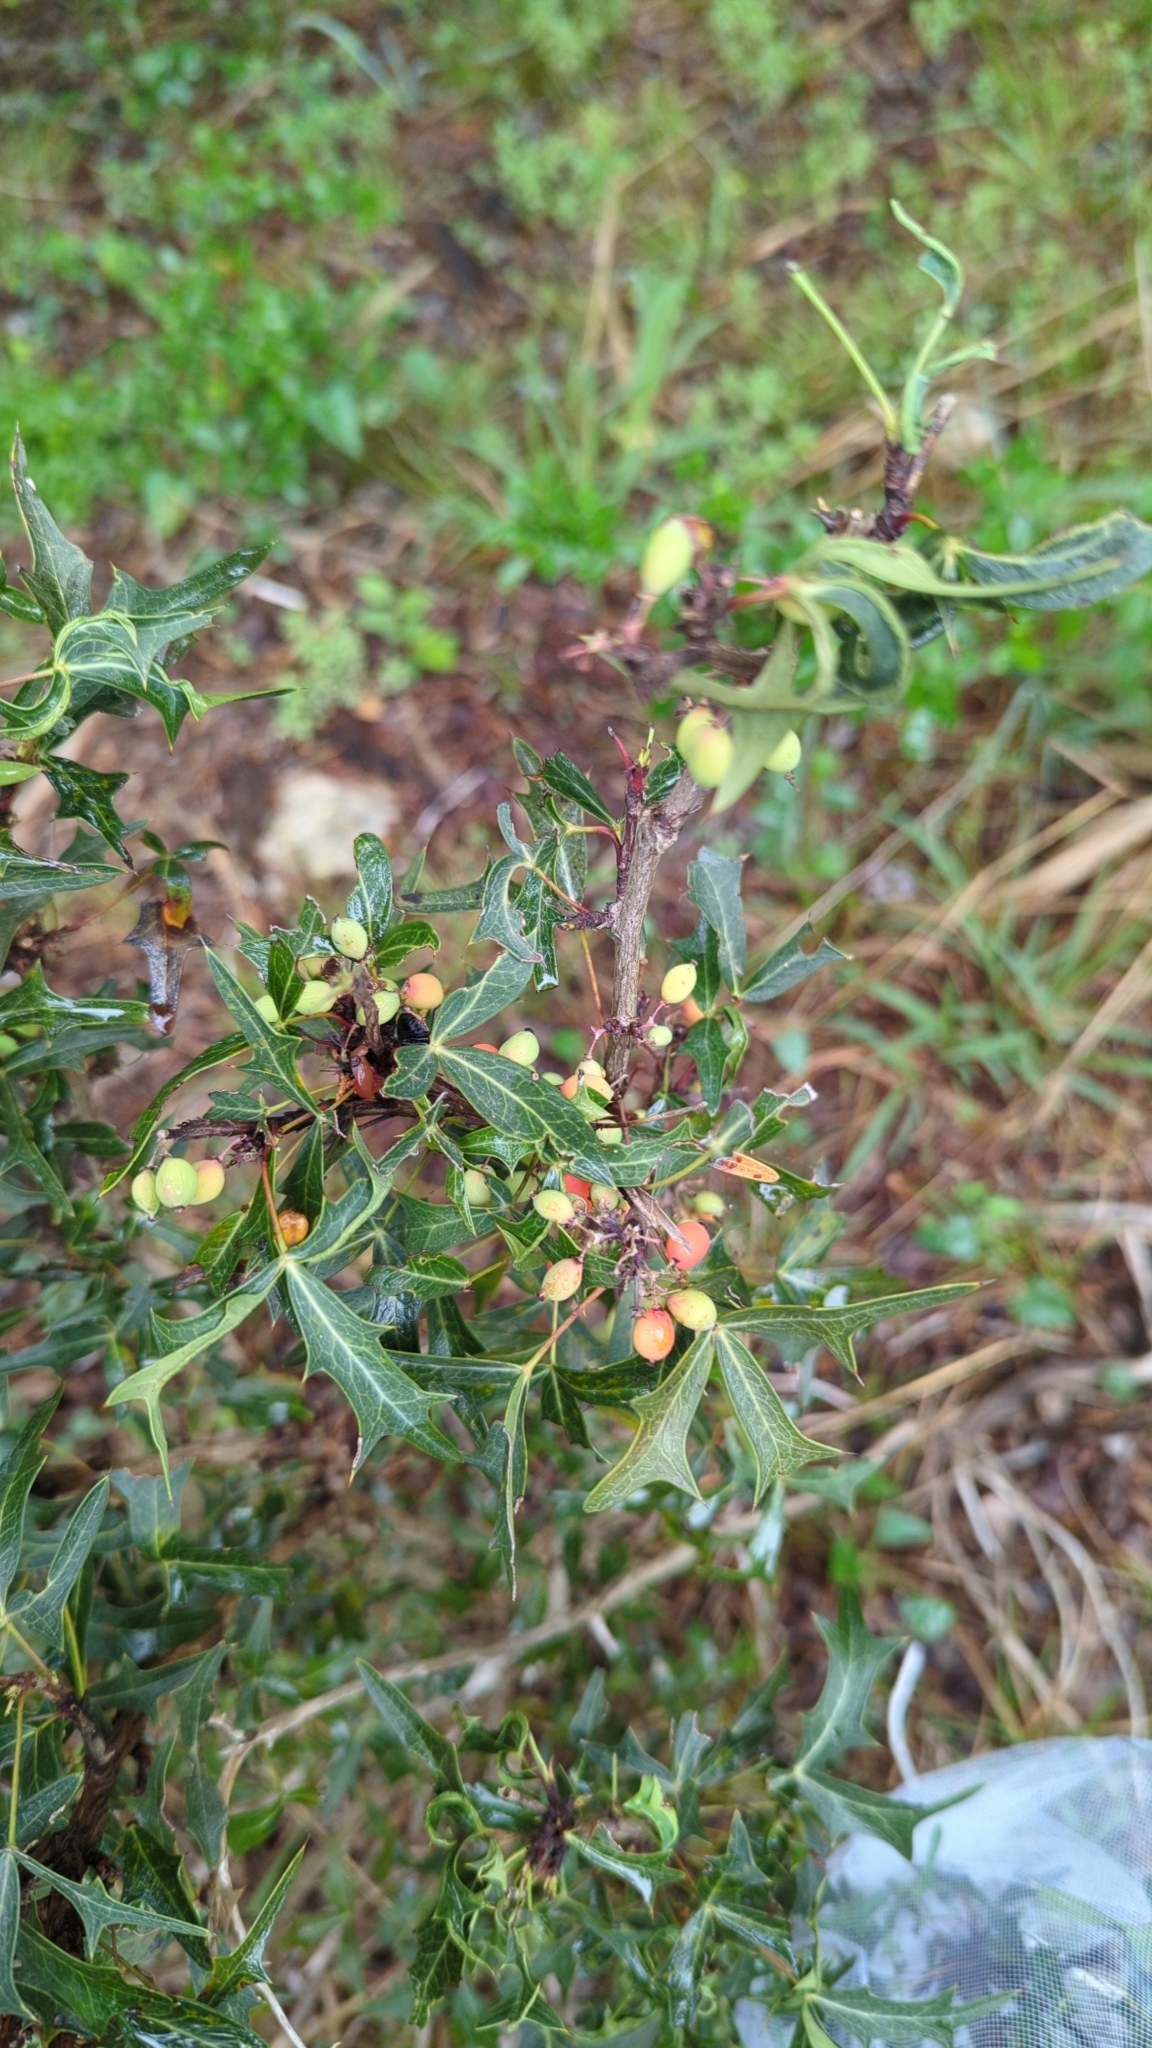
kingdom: Plantae
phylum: Tracheophyta
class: Magnoliopsida
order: Ranunculales
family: Berberidaceae
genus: Alloberberis
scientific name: Alloberberis trifoliolata
